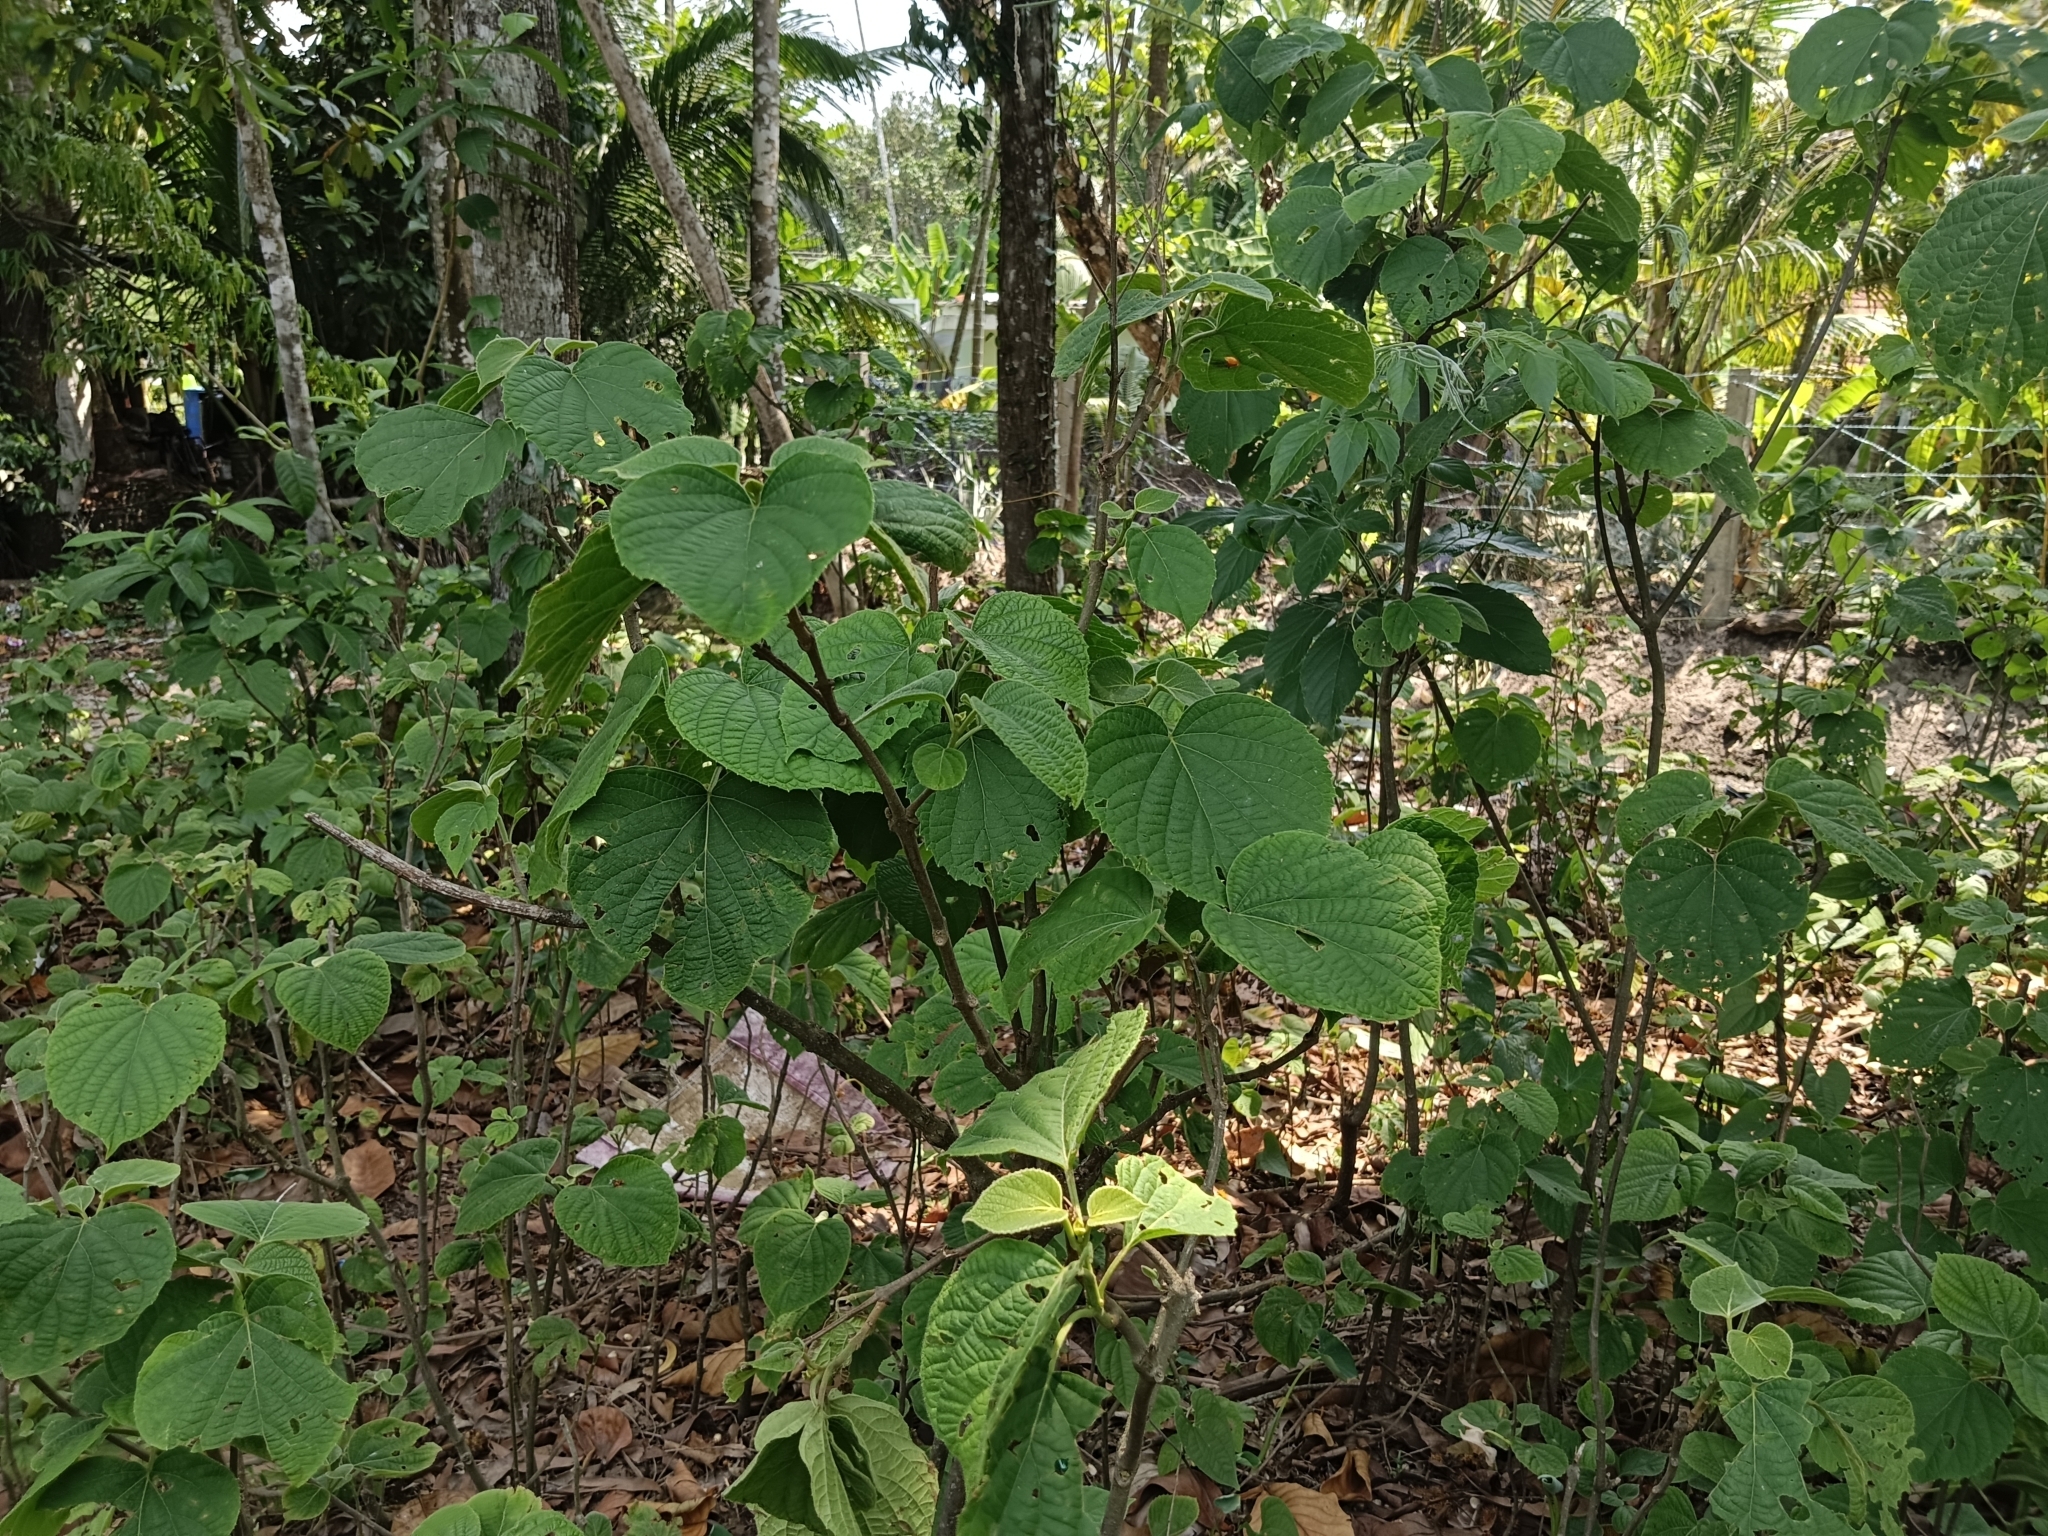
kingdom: Plantae
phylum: Tracheophyta
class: Magnoliopsida
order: Lamiales
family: Lamiaceae
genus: Clerodendrum
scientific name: Clerodendrum infortunatum
